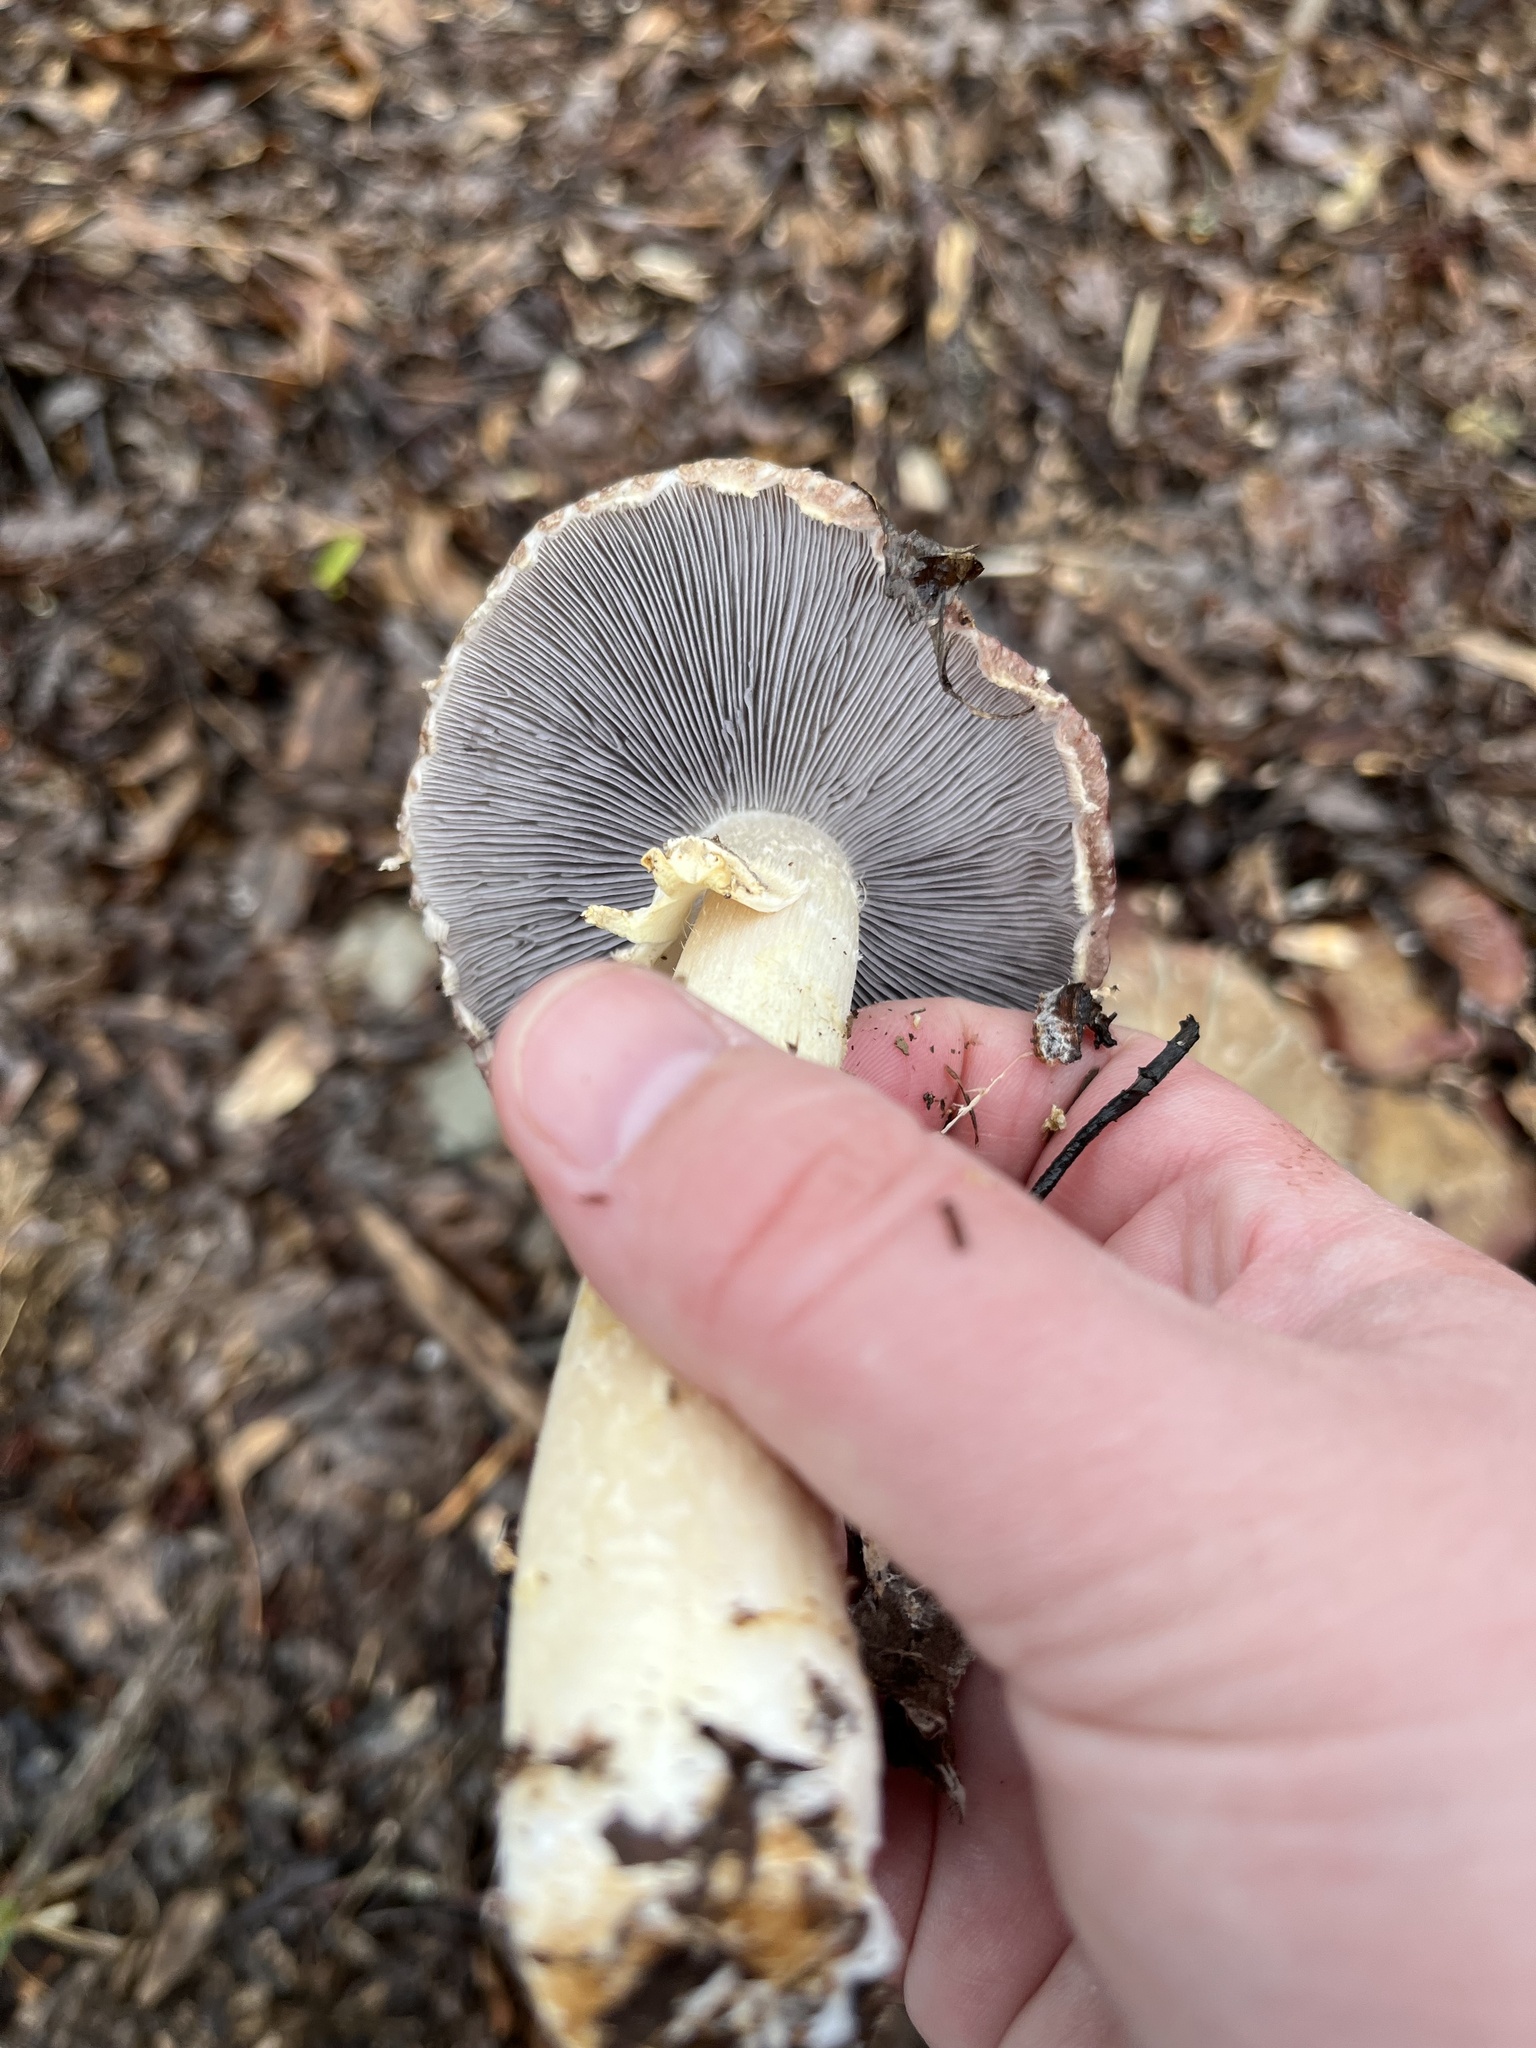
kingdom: Fungi
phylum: Basidiomycota
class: Agaricomycetes
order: Agaricales
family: Strophariaceae
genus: Stropharia
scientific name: Stropharia rugosoannulata
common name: Wine roundhead
